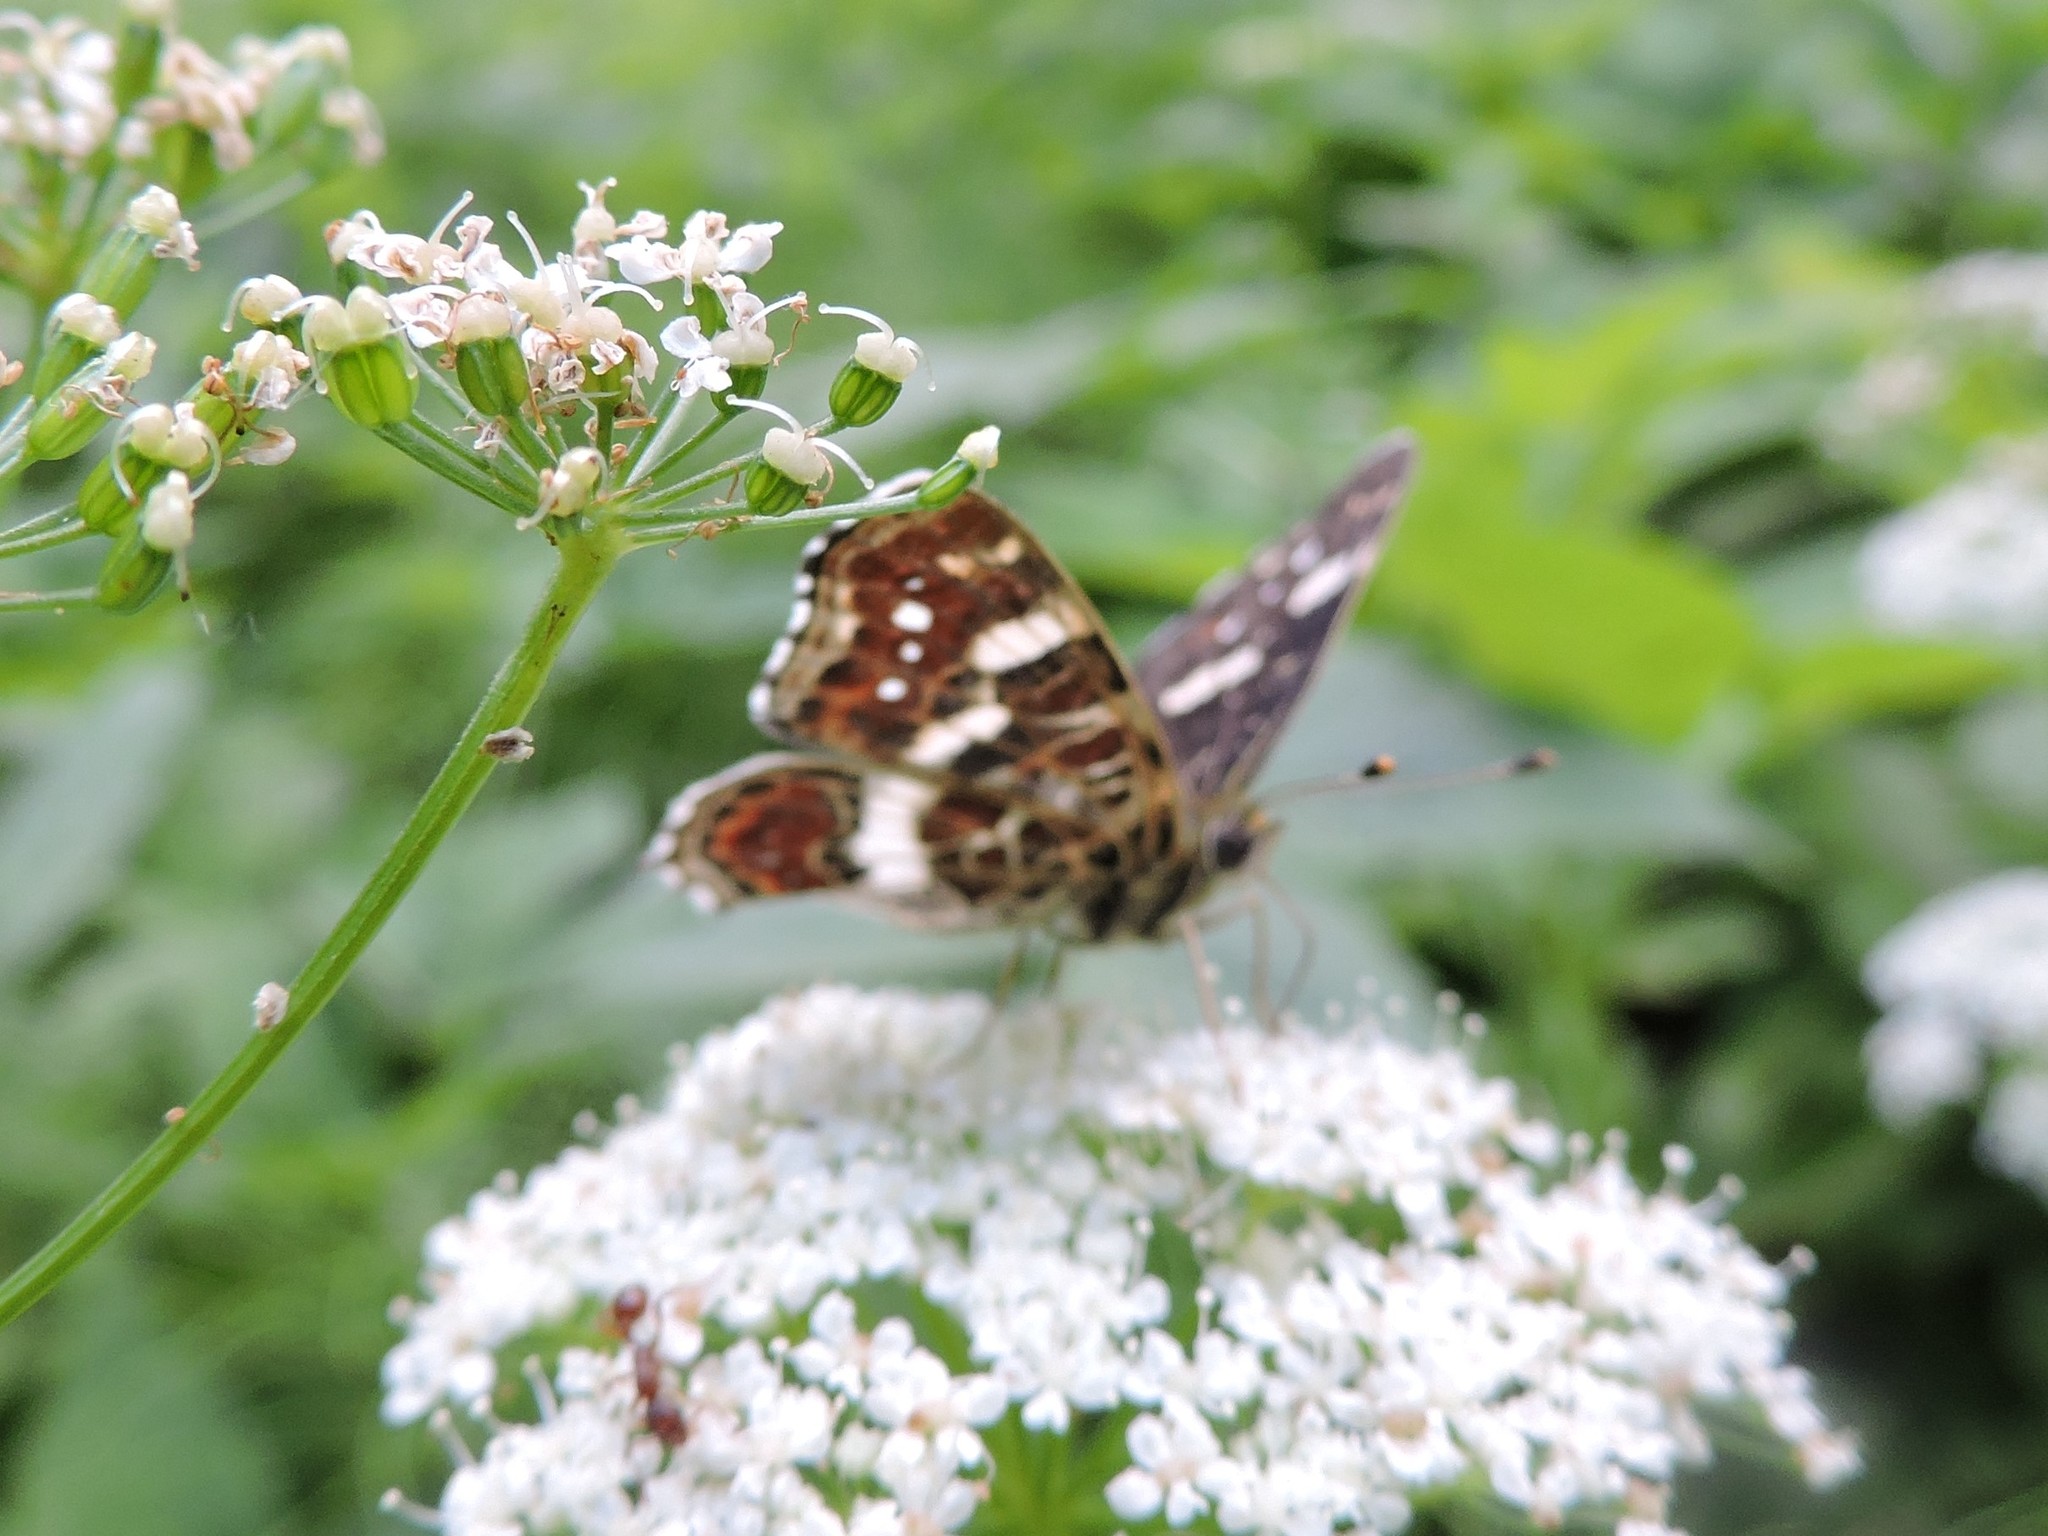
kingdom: Animalia
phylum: Arthropoda
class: Insecta
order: Lepidoptera
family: Nymphalidae
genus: Araschnia
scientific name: Araschnia levana
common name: Map butterfly
